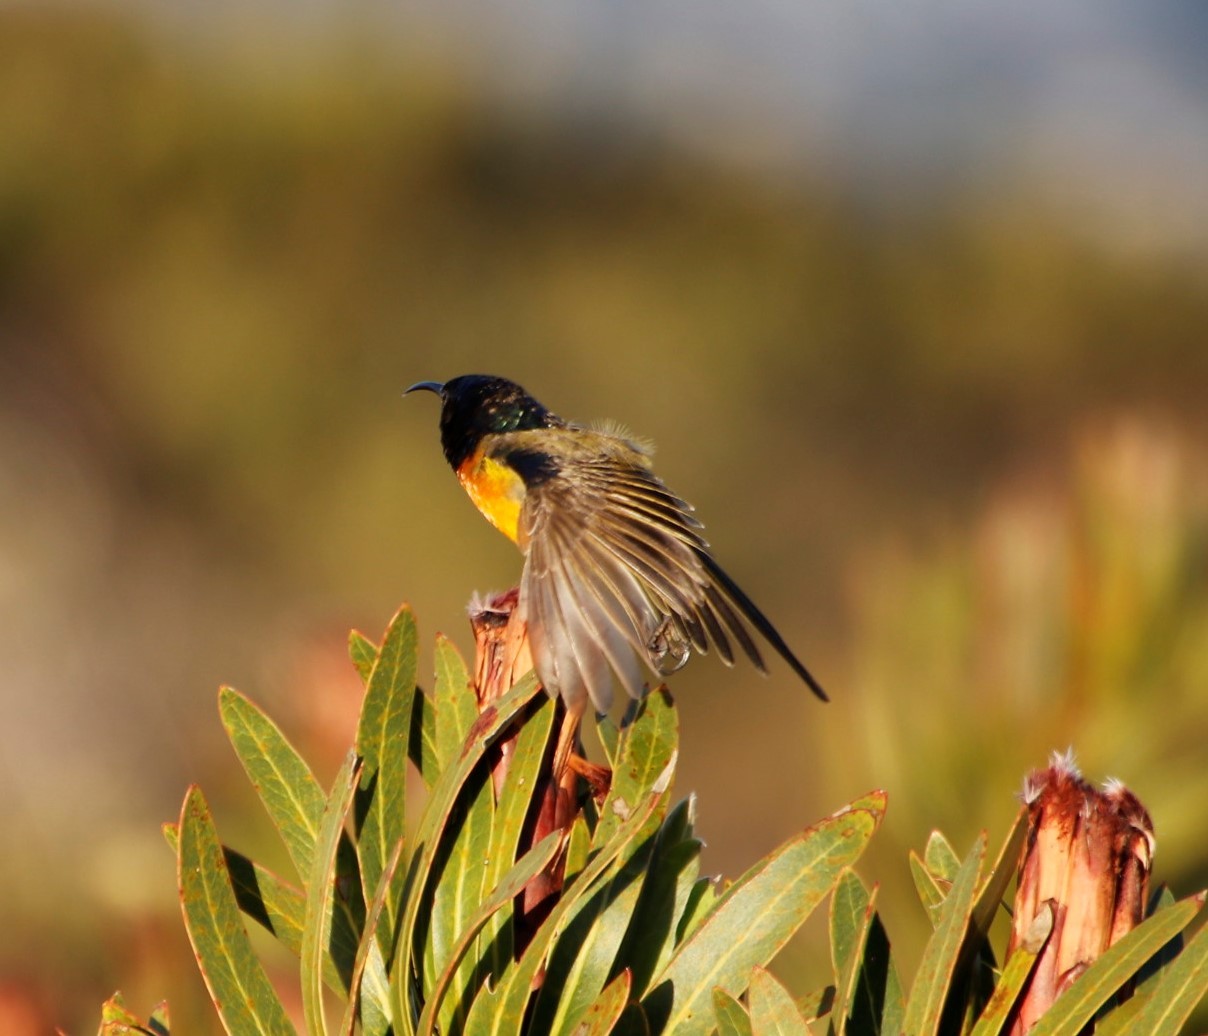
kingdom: Animalia
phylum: Chordata
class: Aves
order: Passeriformes
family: Nectariniidae
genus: Anthobaphes
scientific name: Anthobaphes violacea
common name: Orange-breasted sunbird
